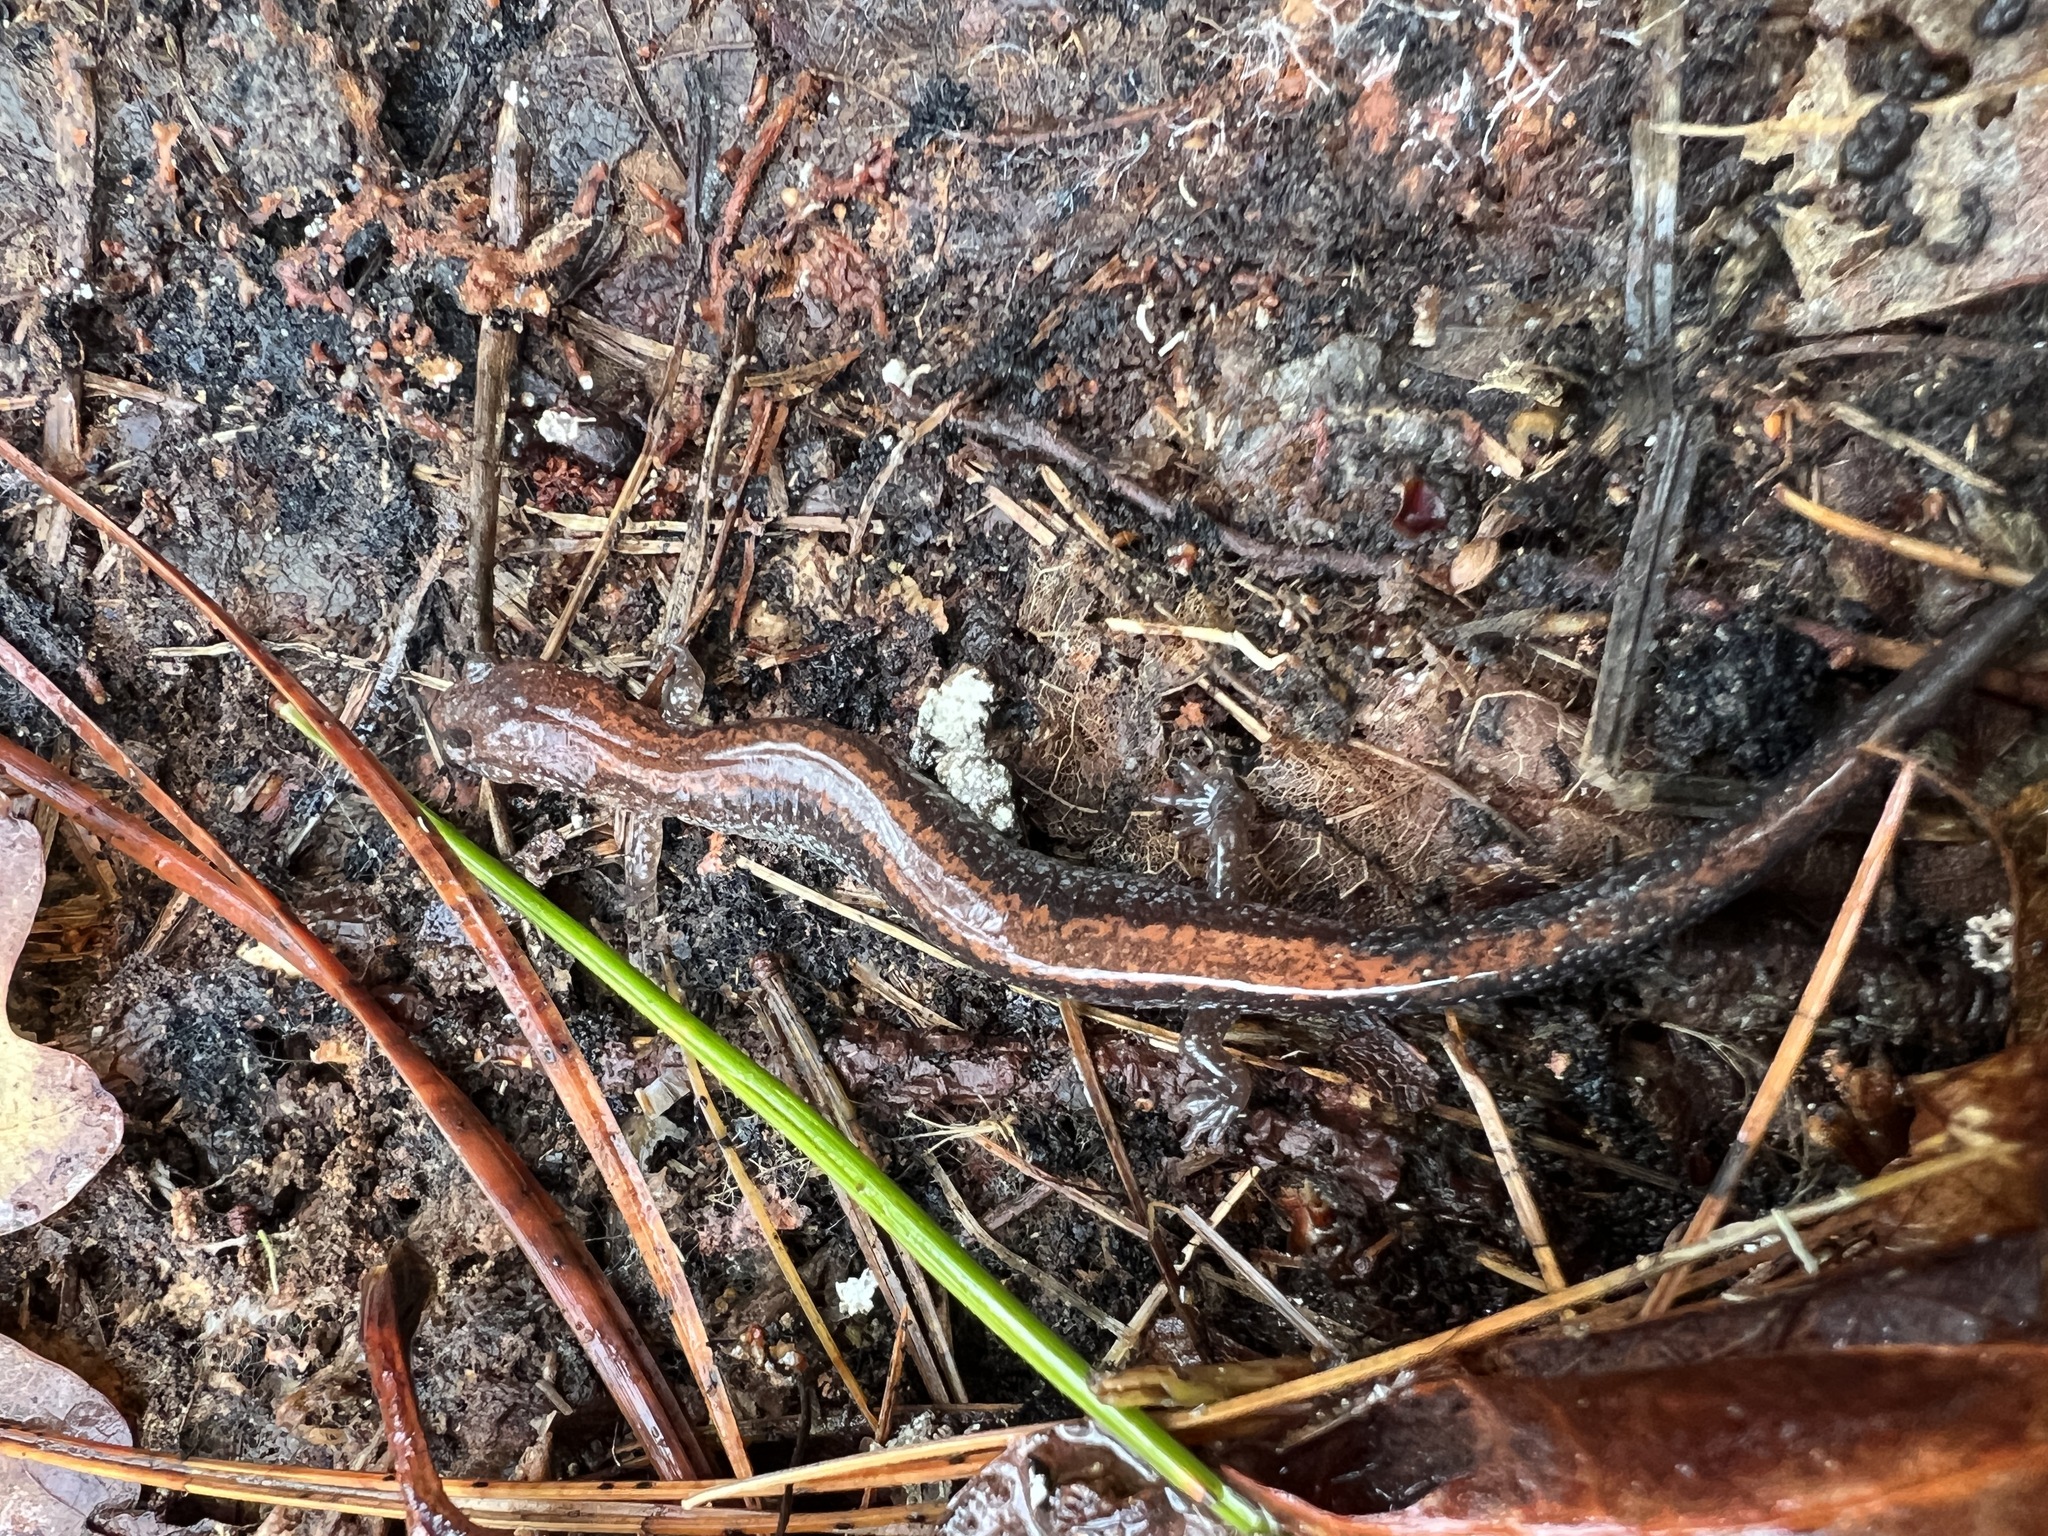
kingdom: Animalia
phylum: Chordata
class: Amphibia
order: Caudata
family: Plethodontidae
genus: Plethodon
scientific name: Plethodon cinereus
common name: Redback salamander
